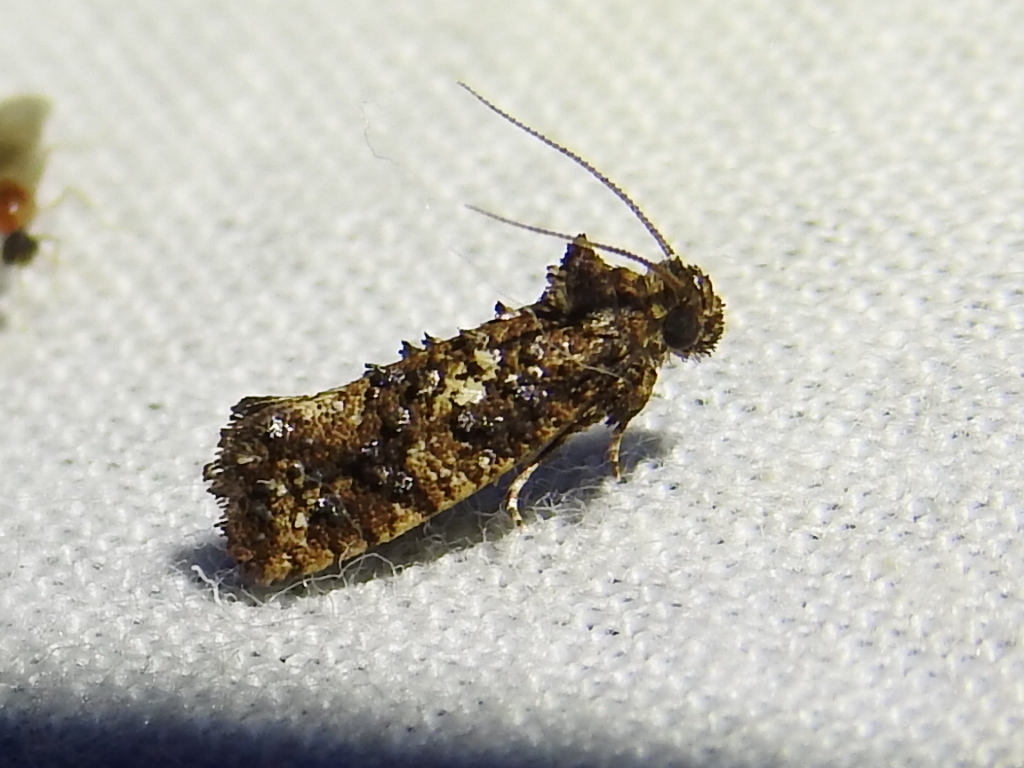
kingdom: Animalia
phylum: Arthropoda
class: Insecta
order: Lepidoptera
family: Tineidae
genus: Acrolophus
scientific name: Acrolophus cressoni
